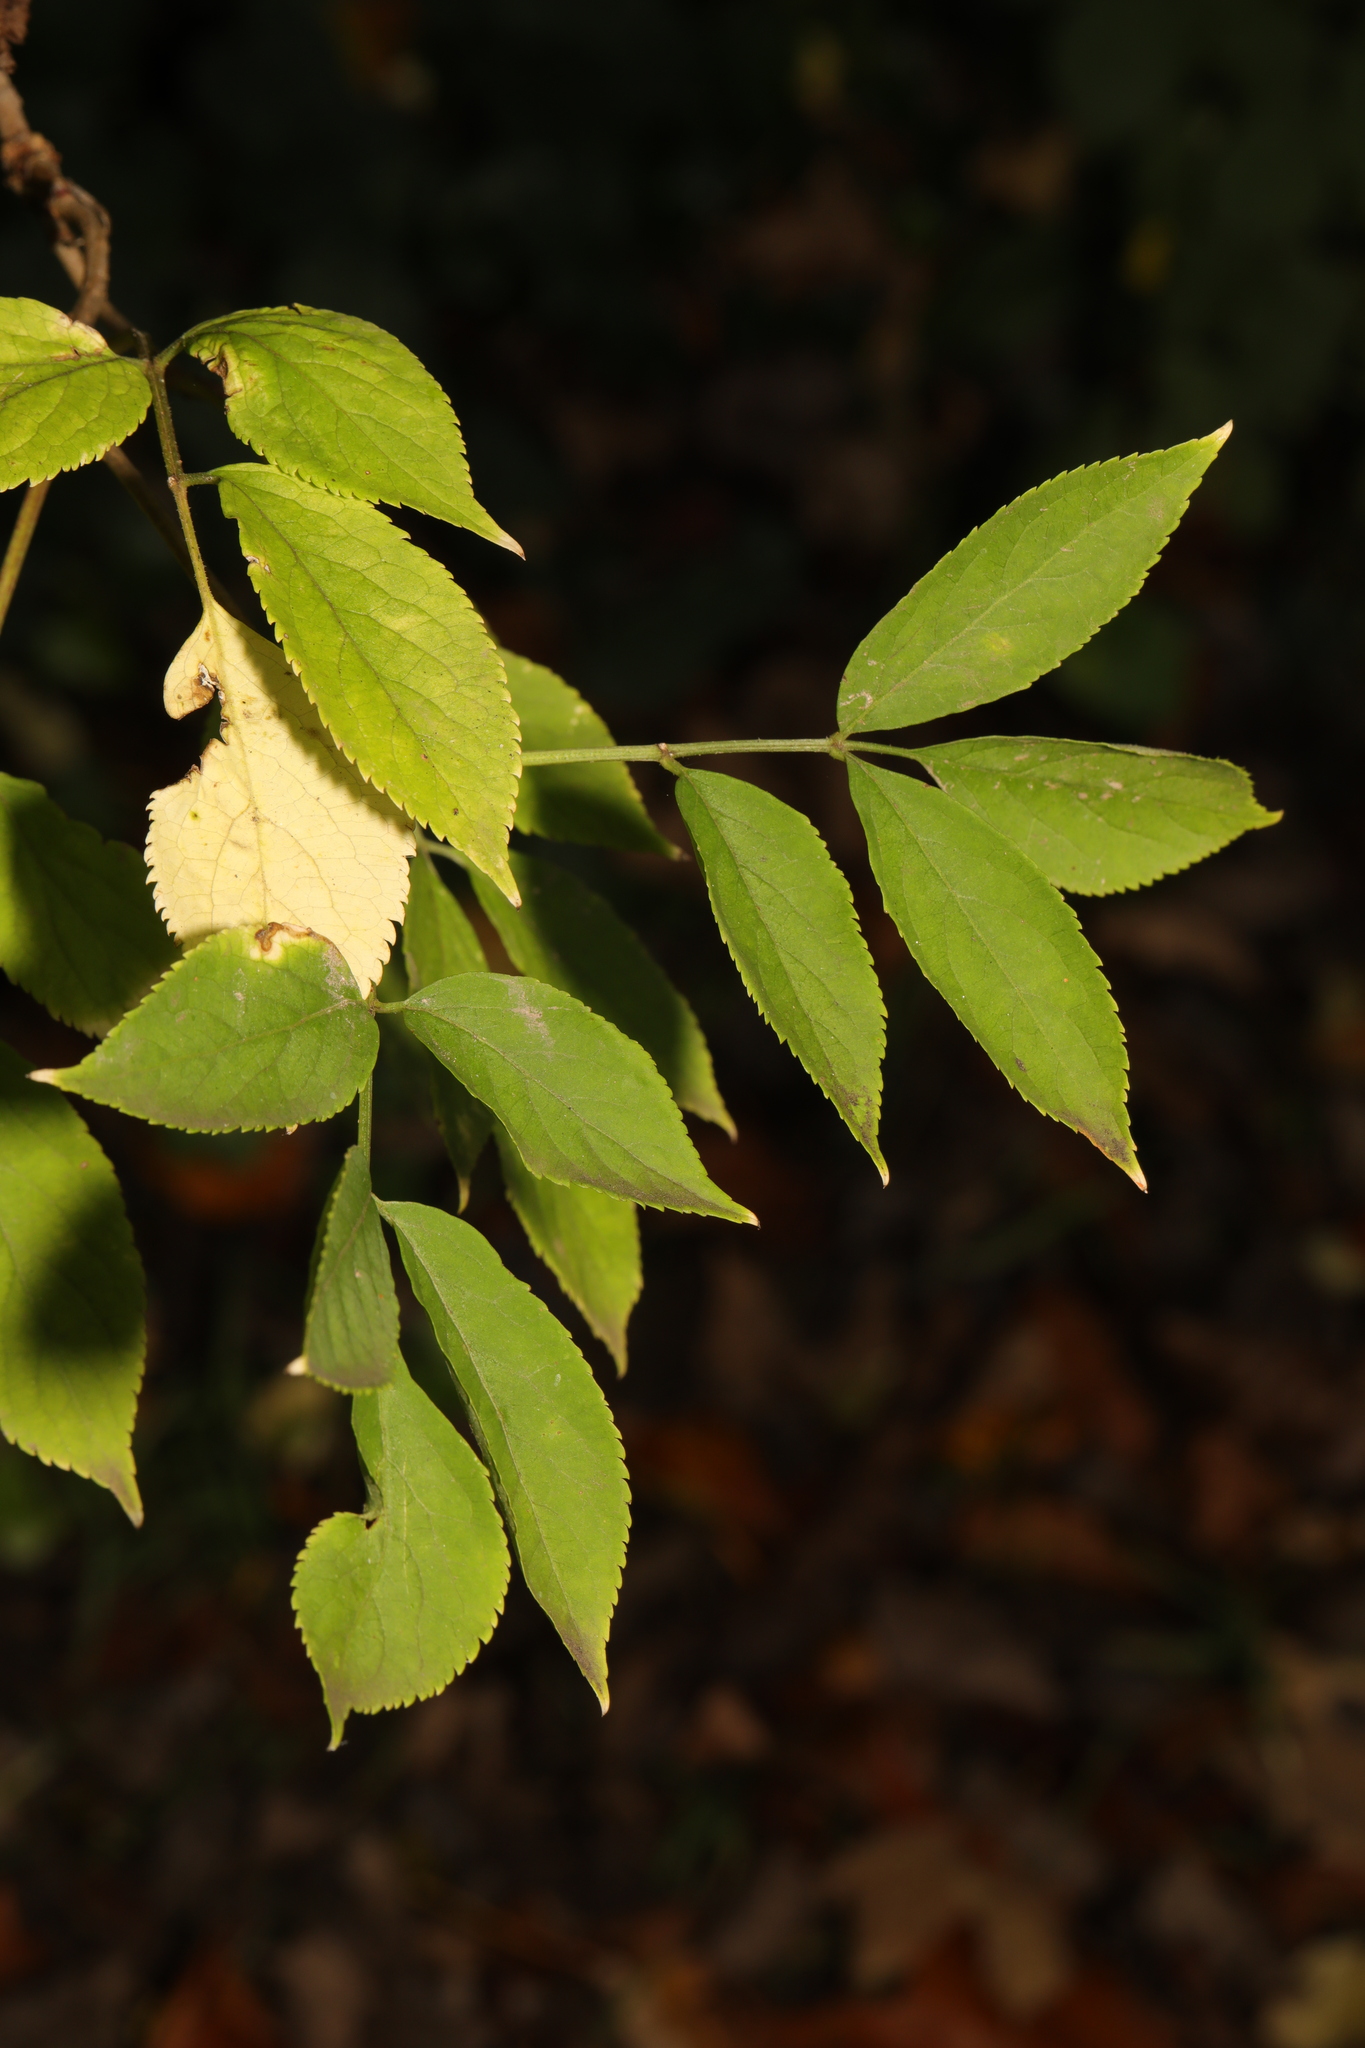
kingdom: Plantae
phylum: Tracheophyta
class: Magnoliopsida
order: Dipsacales
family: Viburnaceae
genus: Sambucus
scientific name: Sambucus nigra
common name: Elder
